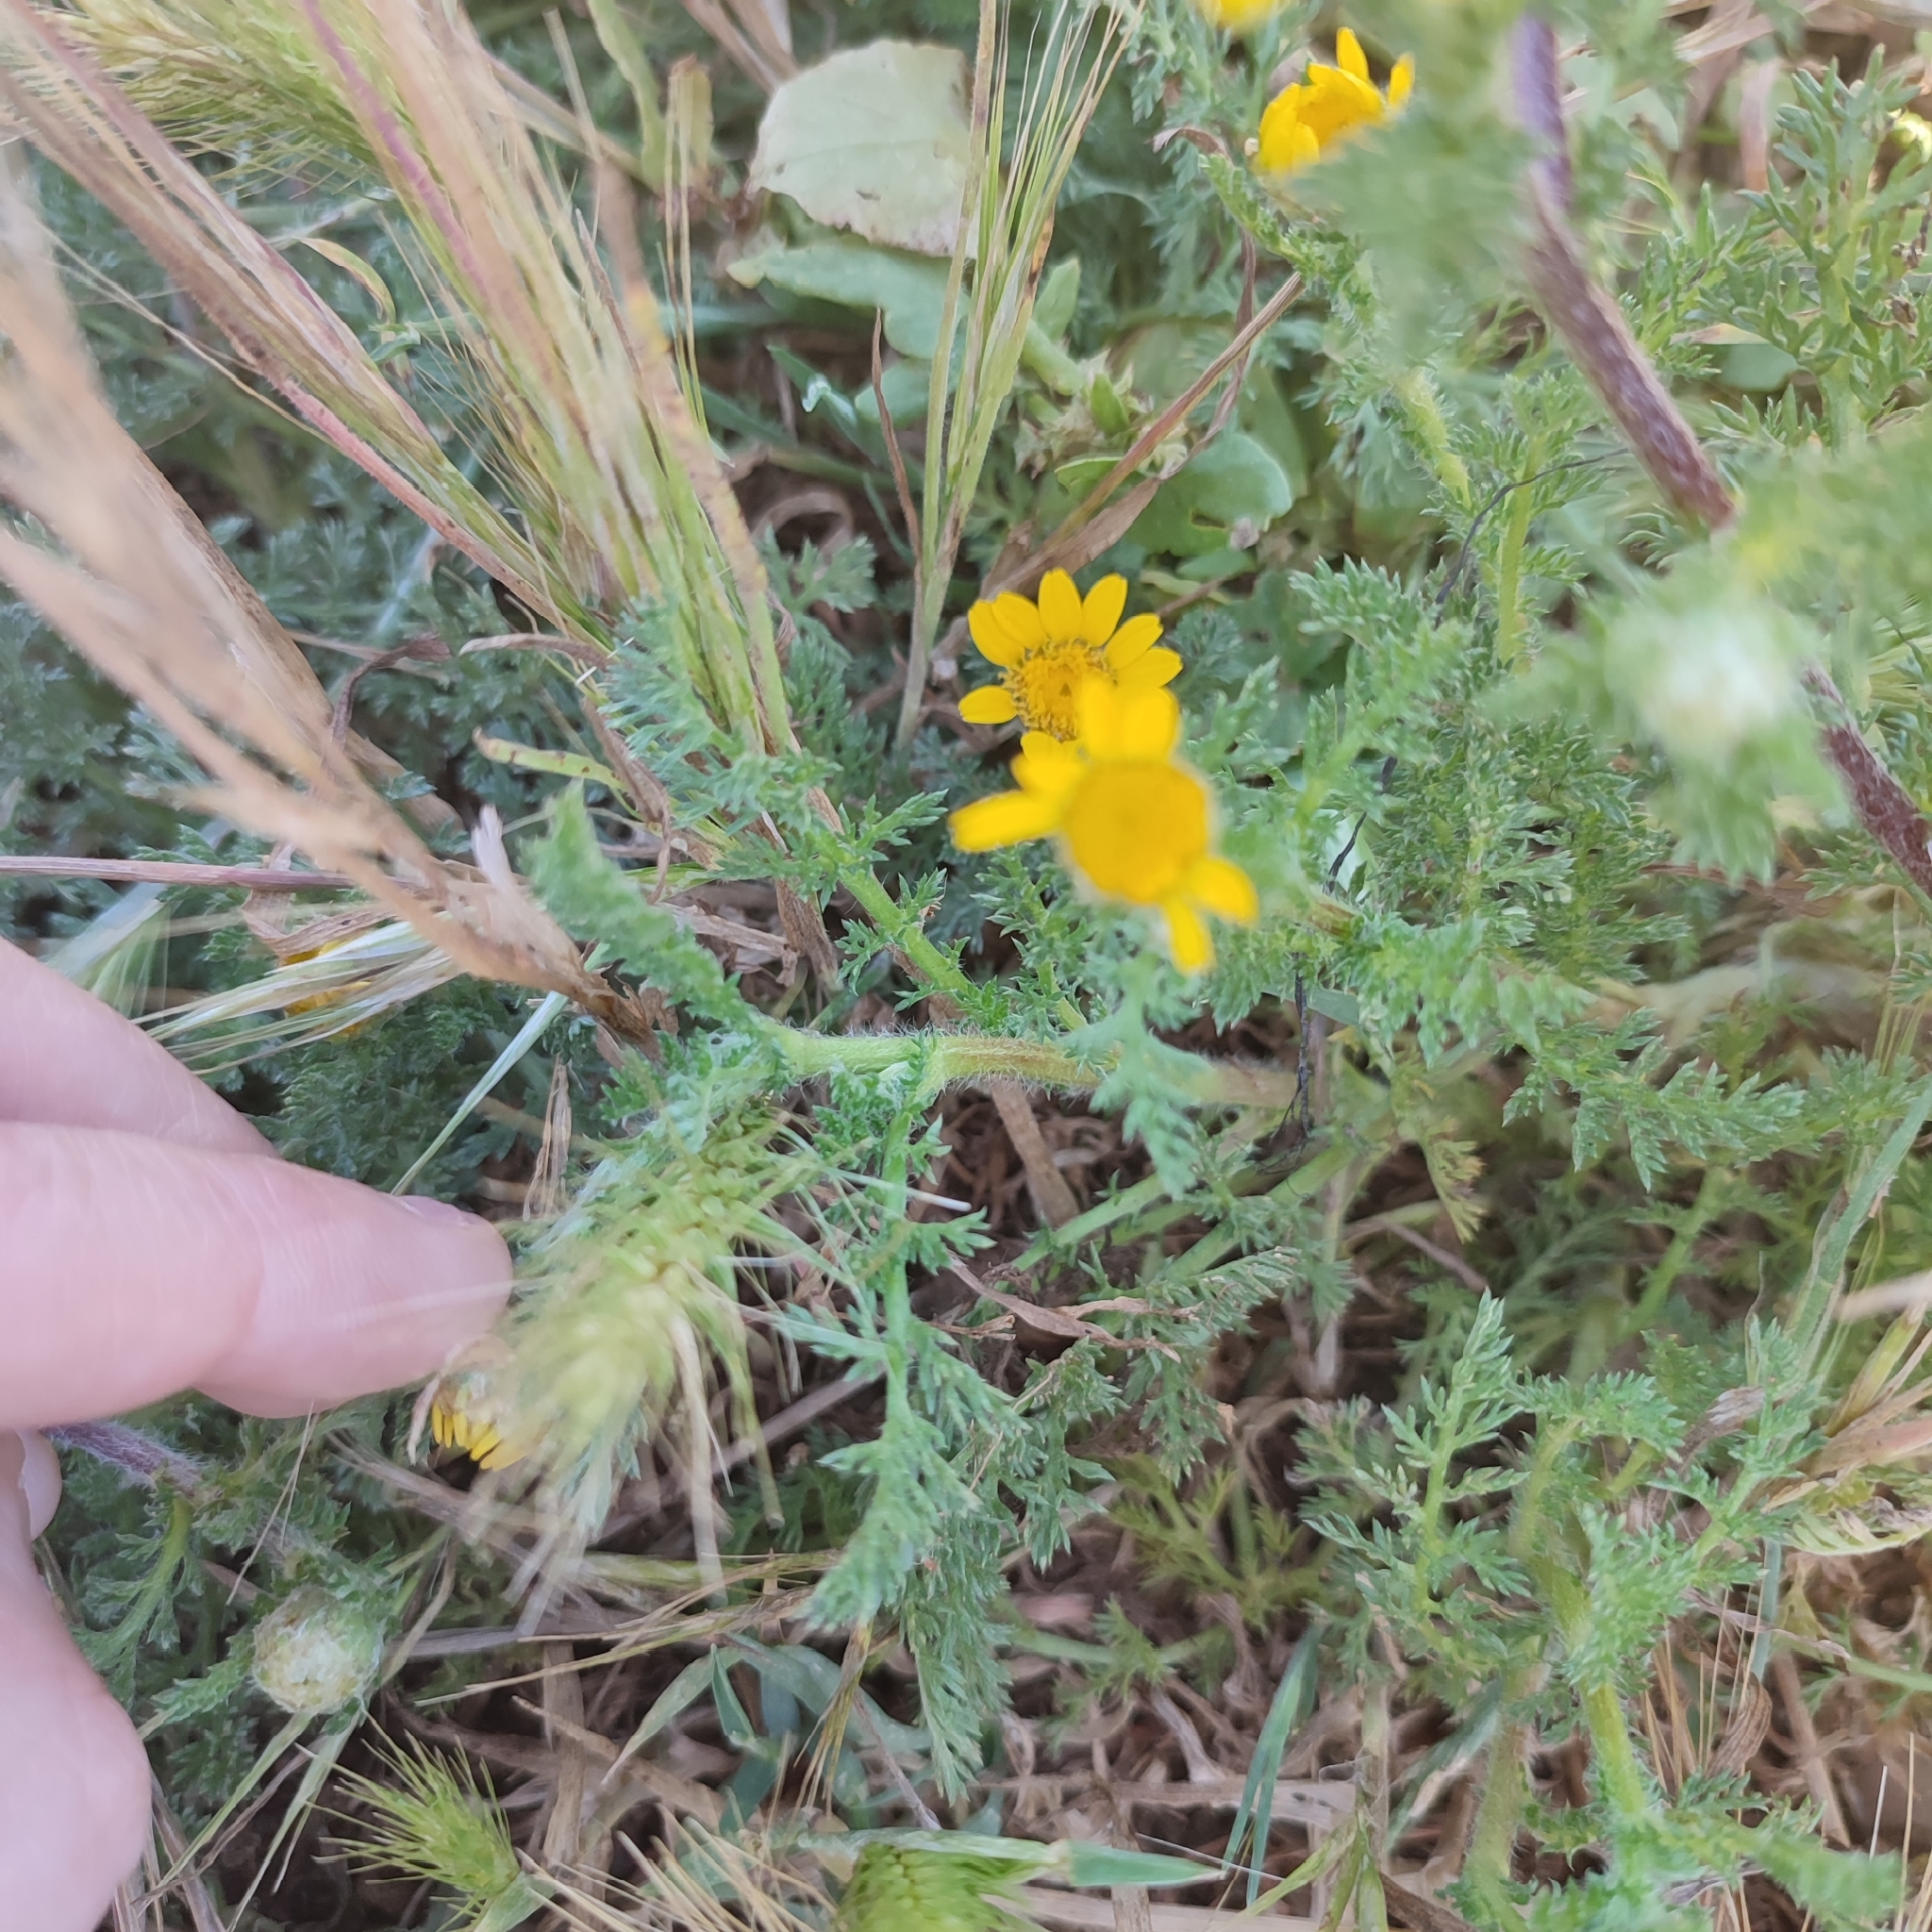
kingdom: Plantae
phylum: Tracheophyta
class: Magnoliopsida
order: Asterales
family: Asteraceae
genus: Anacyclus
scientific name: Anacyclus radiatus
